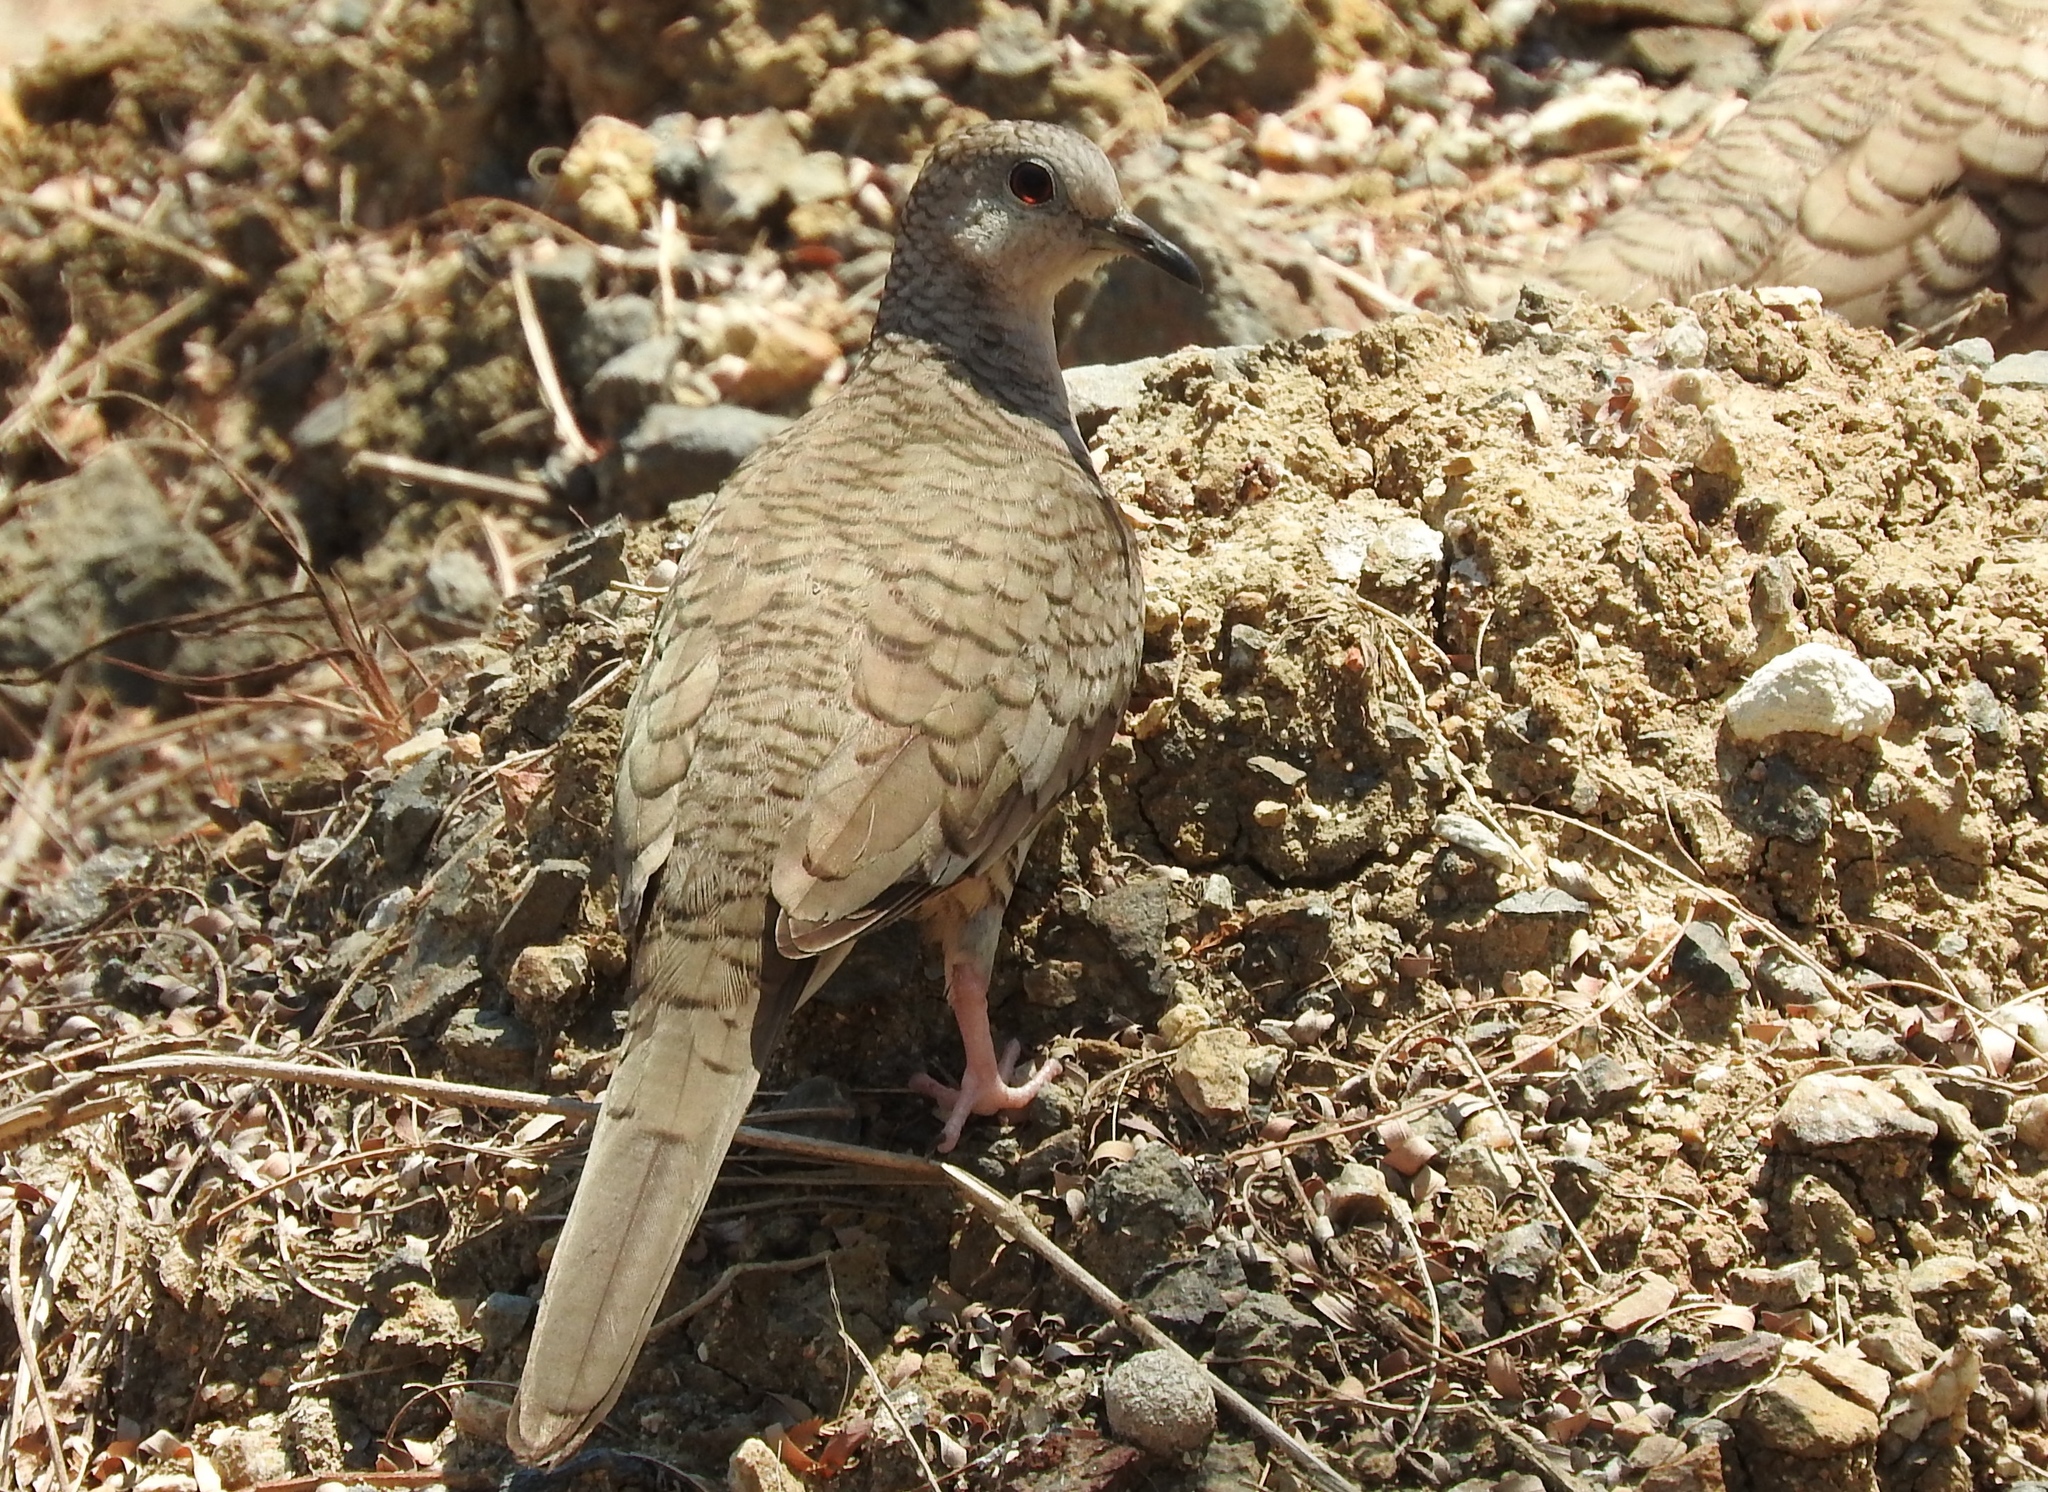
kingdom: Animalia
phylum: Chordata
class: Aves
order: Columbiformes
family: Columbidae
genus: Columbina
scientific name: Columbina inca
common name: Inca dove
